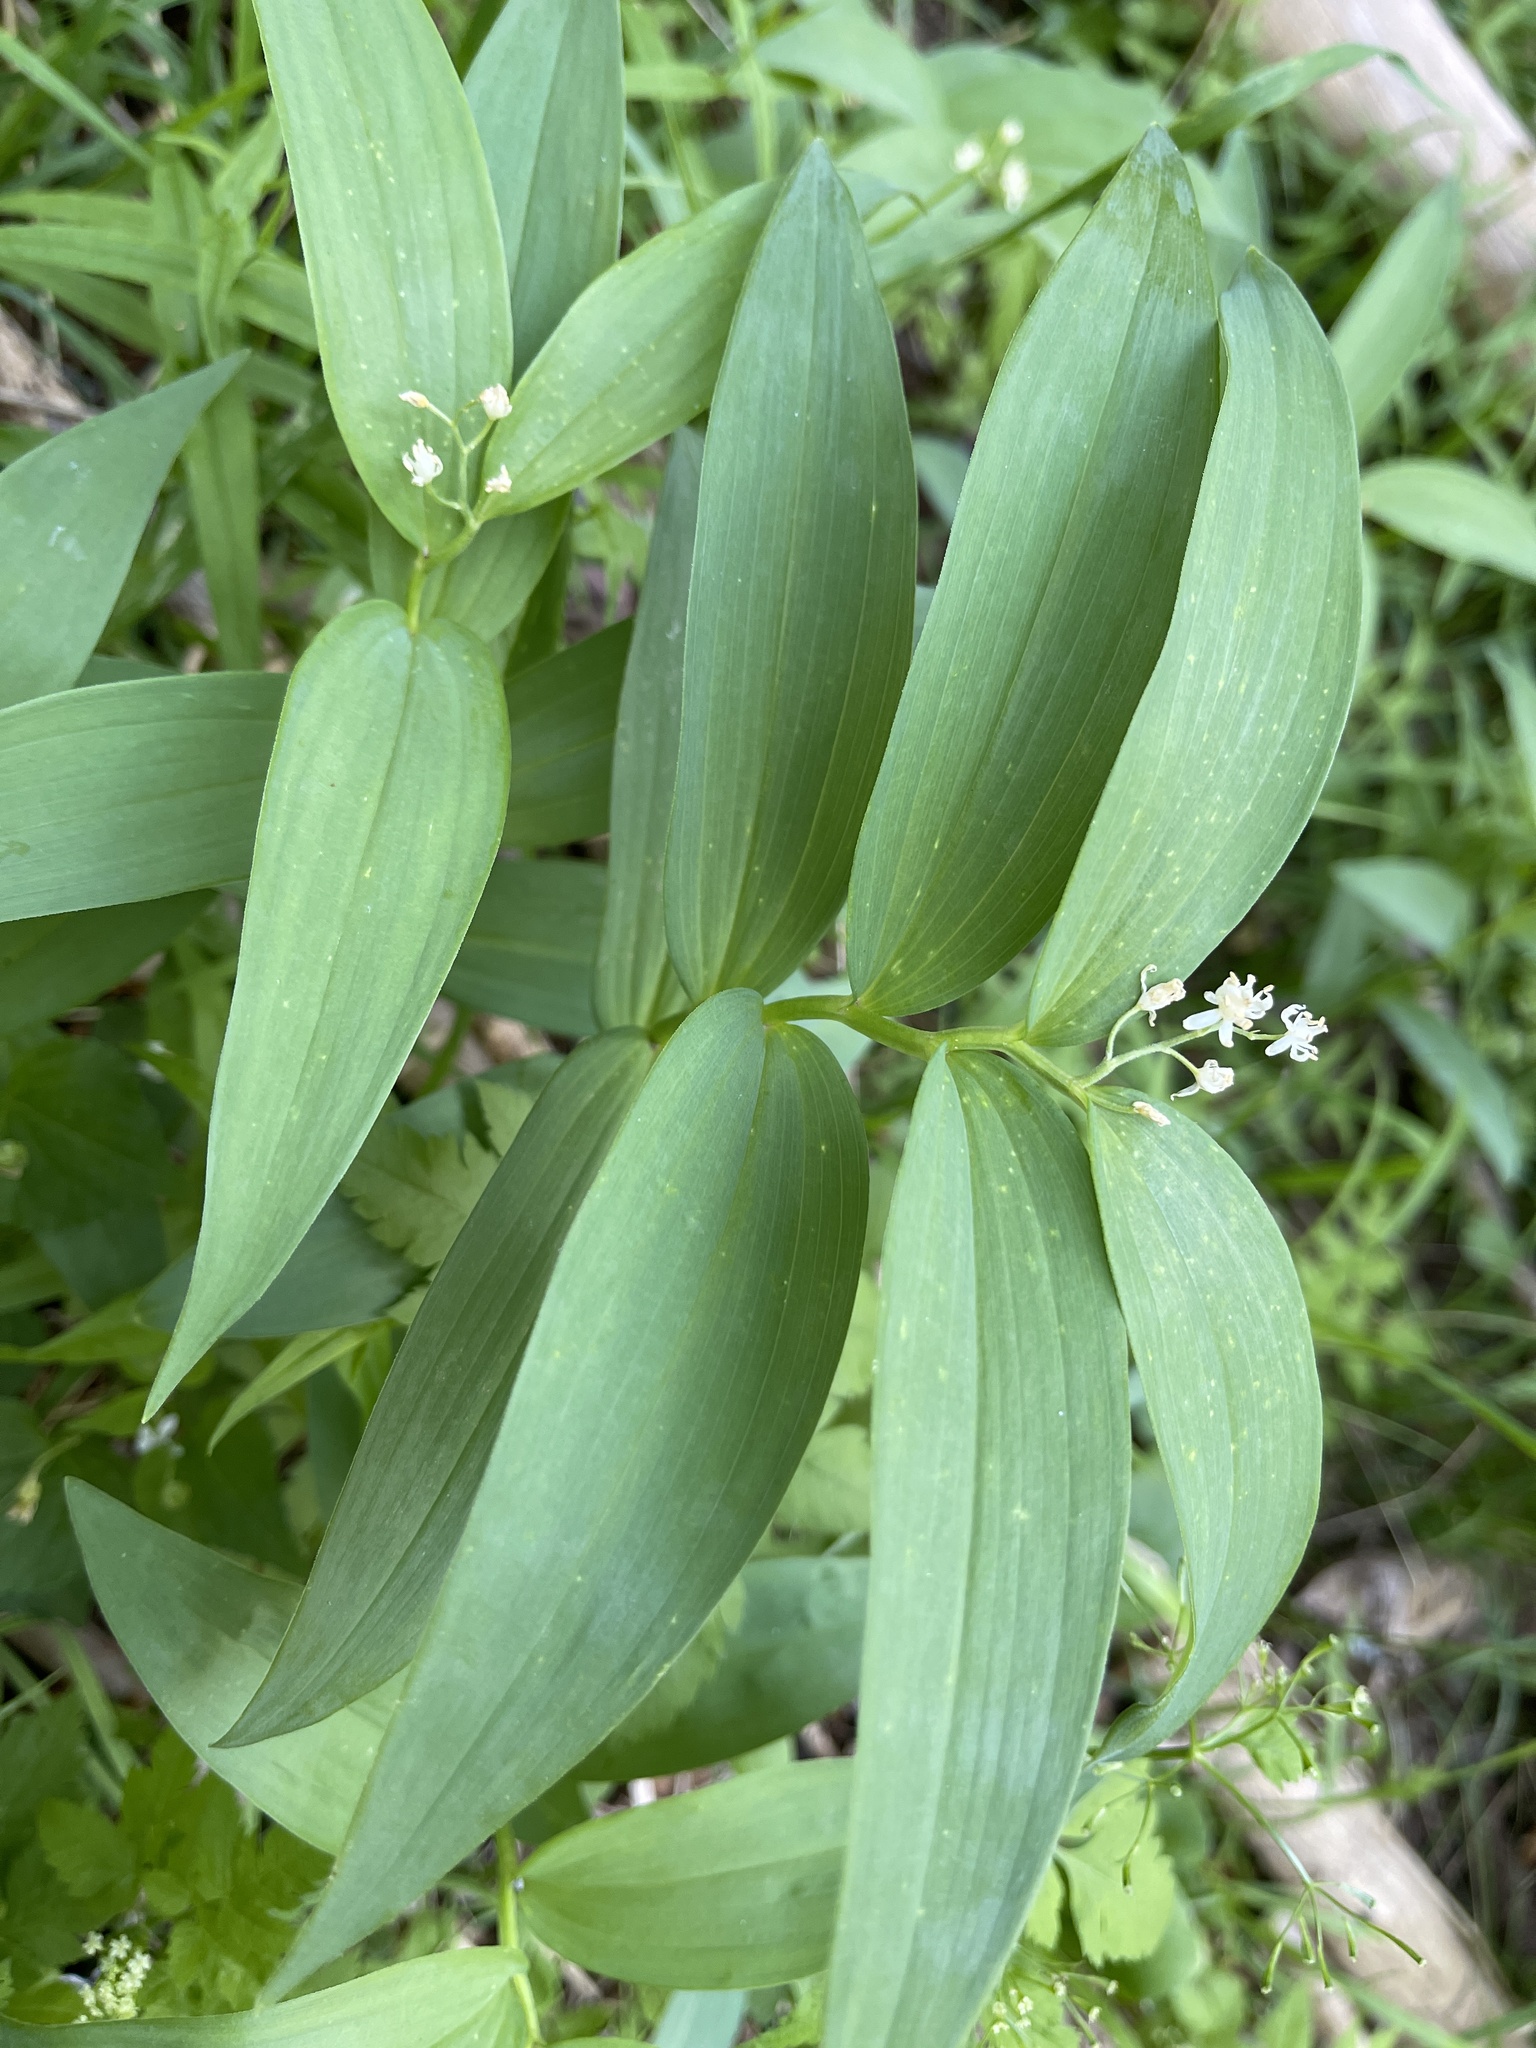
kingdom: Plantae
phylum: Tracheophyta
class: Liliopsida
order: Asparagales
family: Asparagaceae
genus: Maianthemum
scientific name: Maianthemum stellatum
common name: Little false solomon's seal
